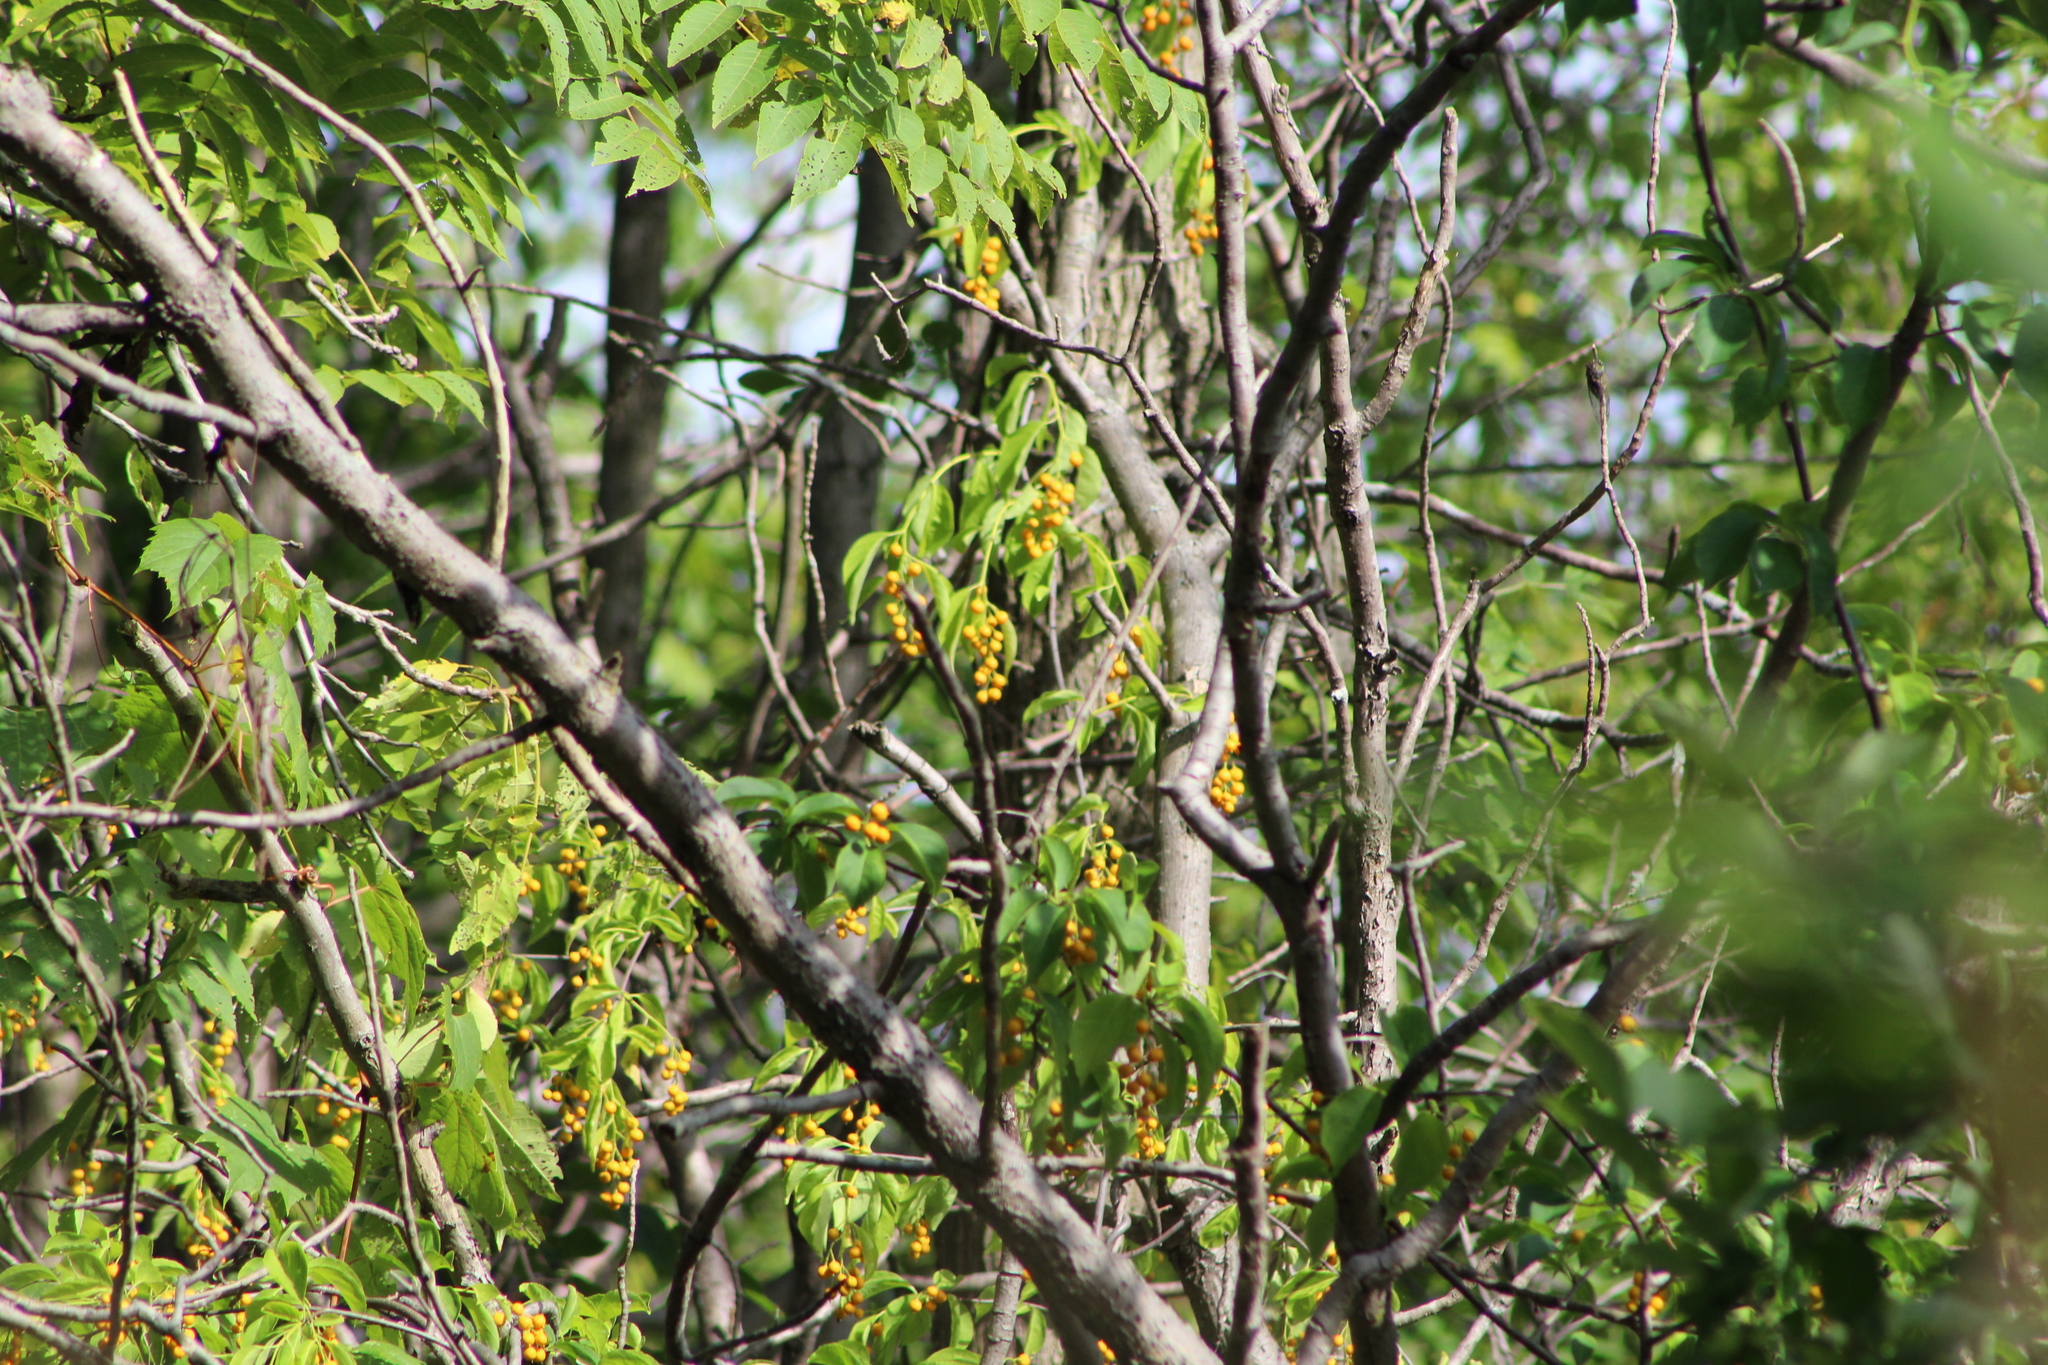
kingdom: Plantae
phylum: Tracheophyta
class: Magnoliopsida
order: Celastrales
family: Celastraceae
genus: Celastrus
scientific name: Celastrus scandens
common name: American bittersweet
